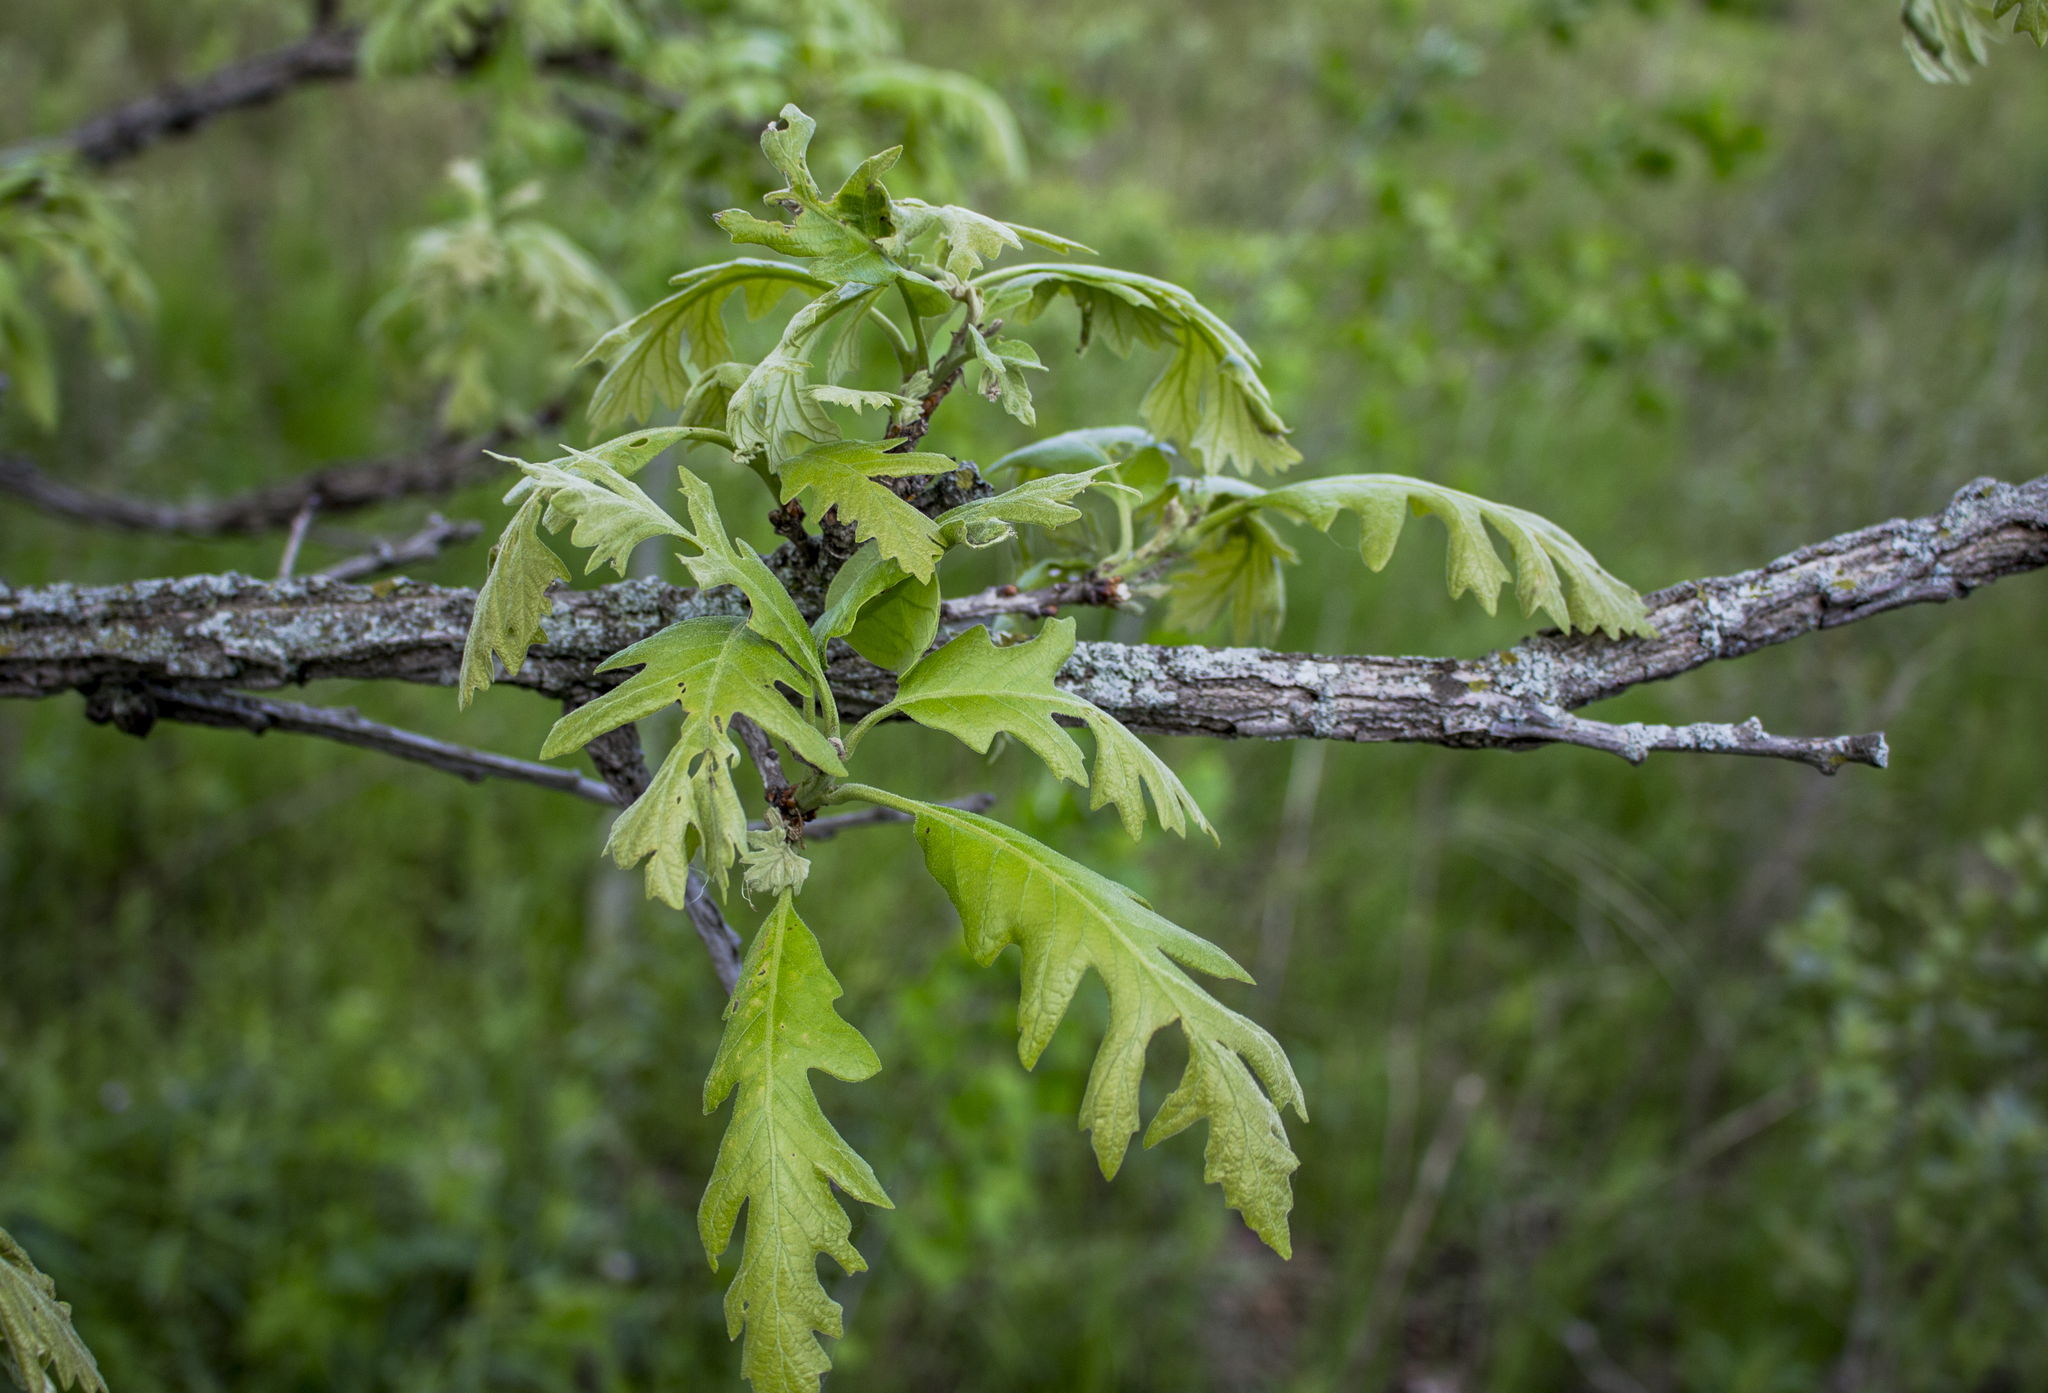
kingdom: Plantae
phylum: Tracheophyta
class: Magnoliopsida
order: Fagales
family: Fagaceae
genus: Quercus
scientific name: Quercus macrocarpa
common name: Bur oak
